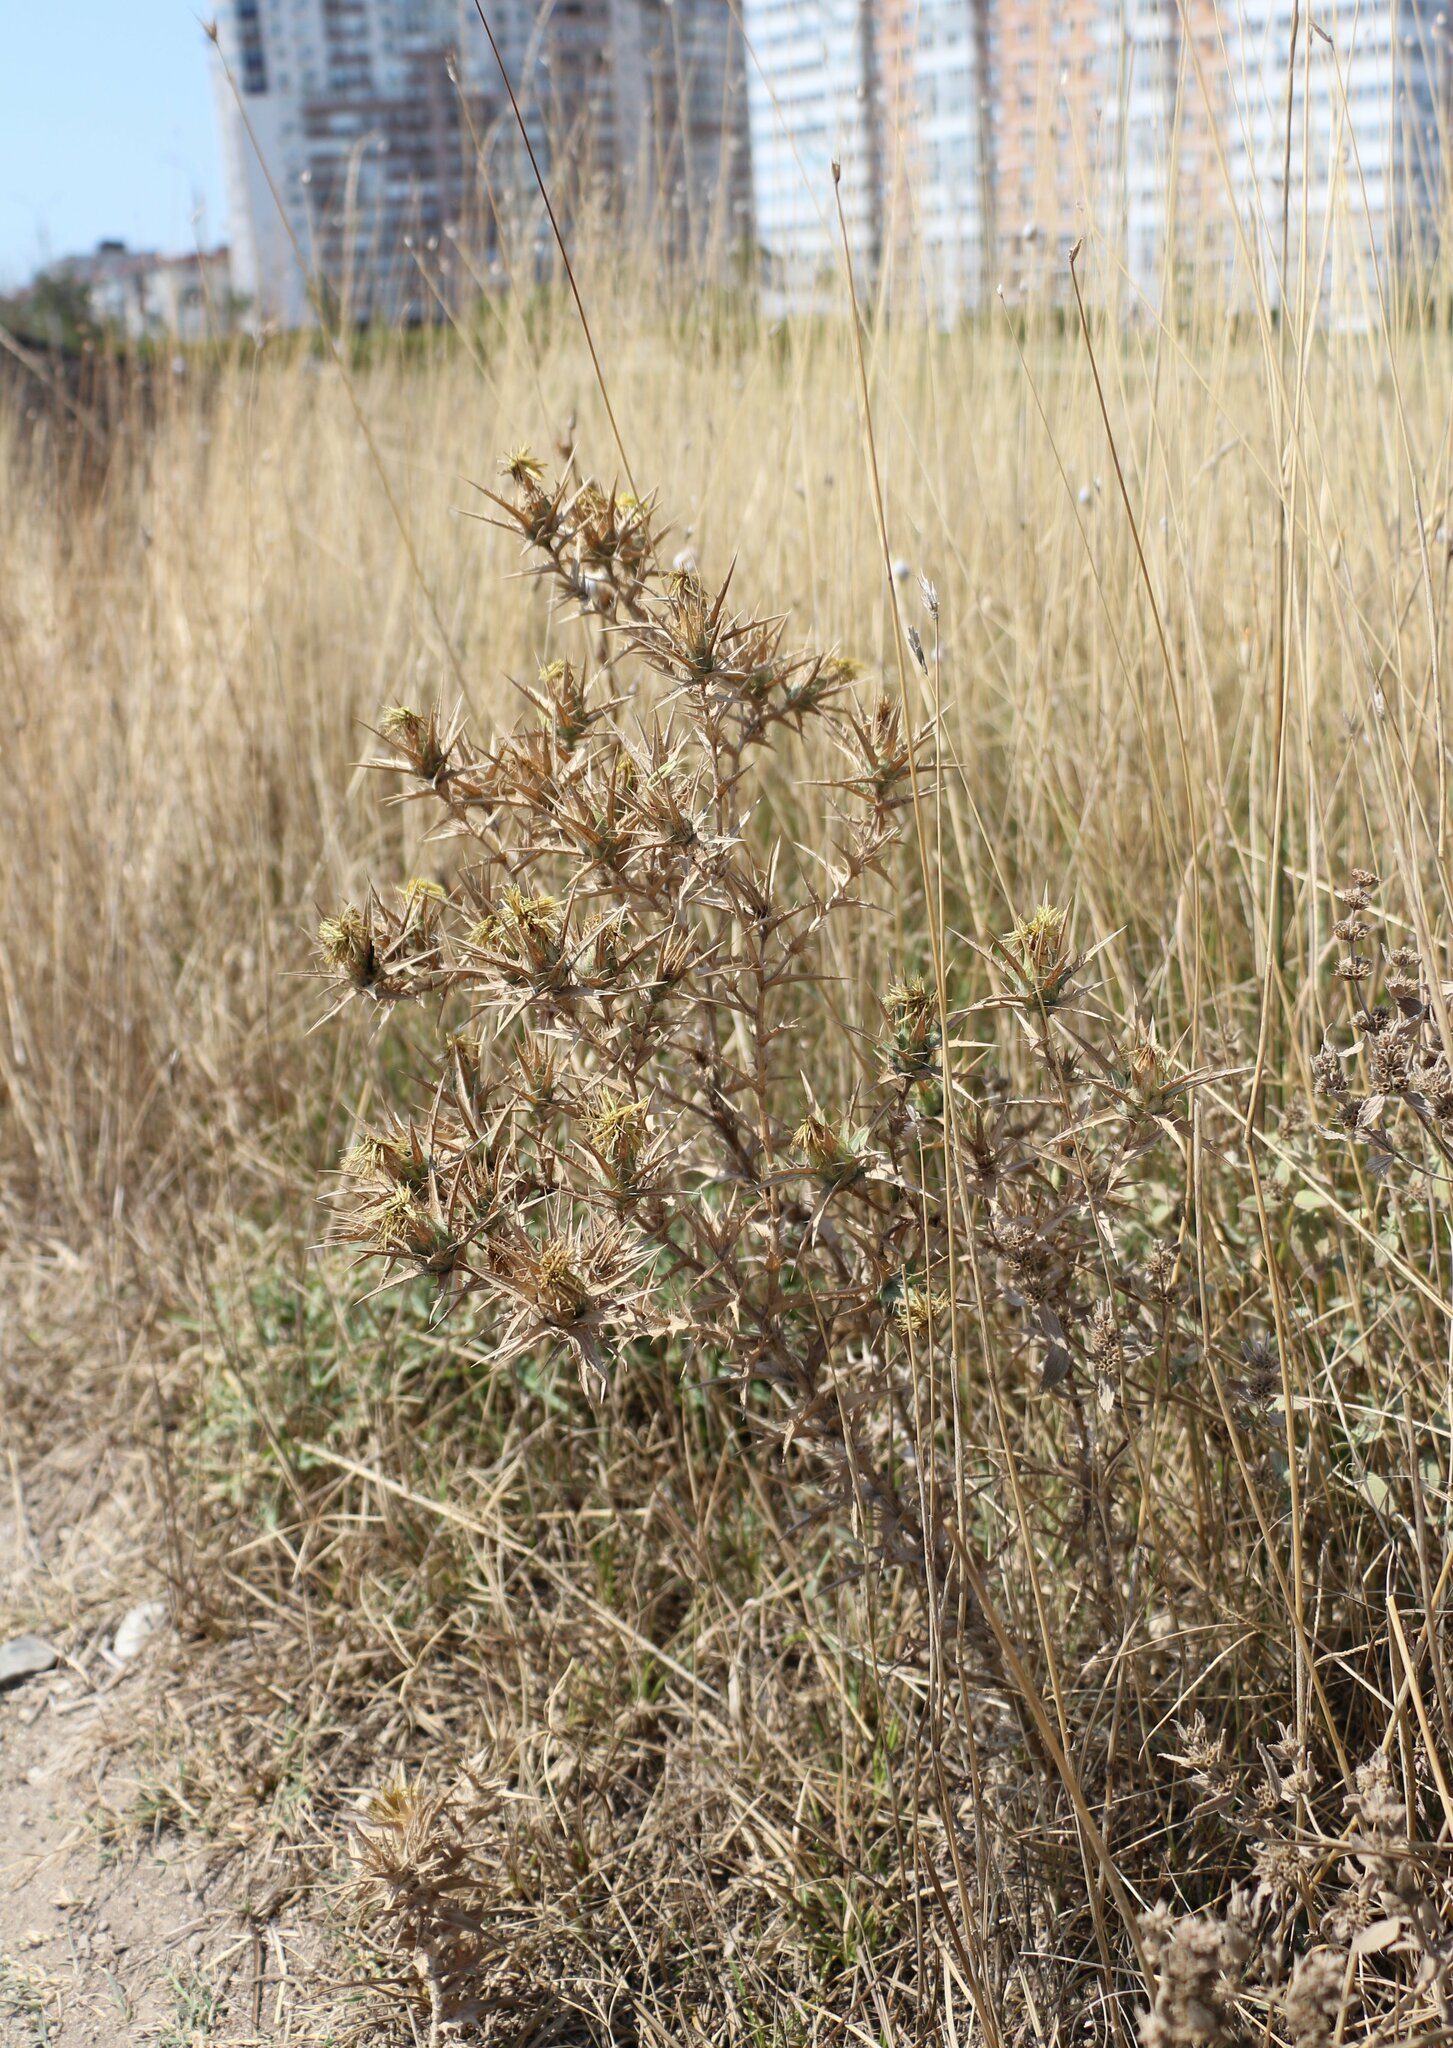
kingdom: Plantae
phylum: Tracheophyta
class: Magnoliopsida
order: Asterales
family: Asteraceae
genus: Carthamus
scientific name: Carthamus lanatus
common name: Downy safflower
